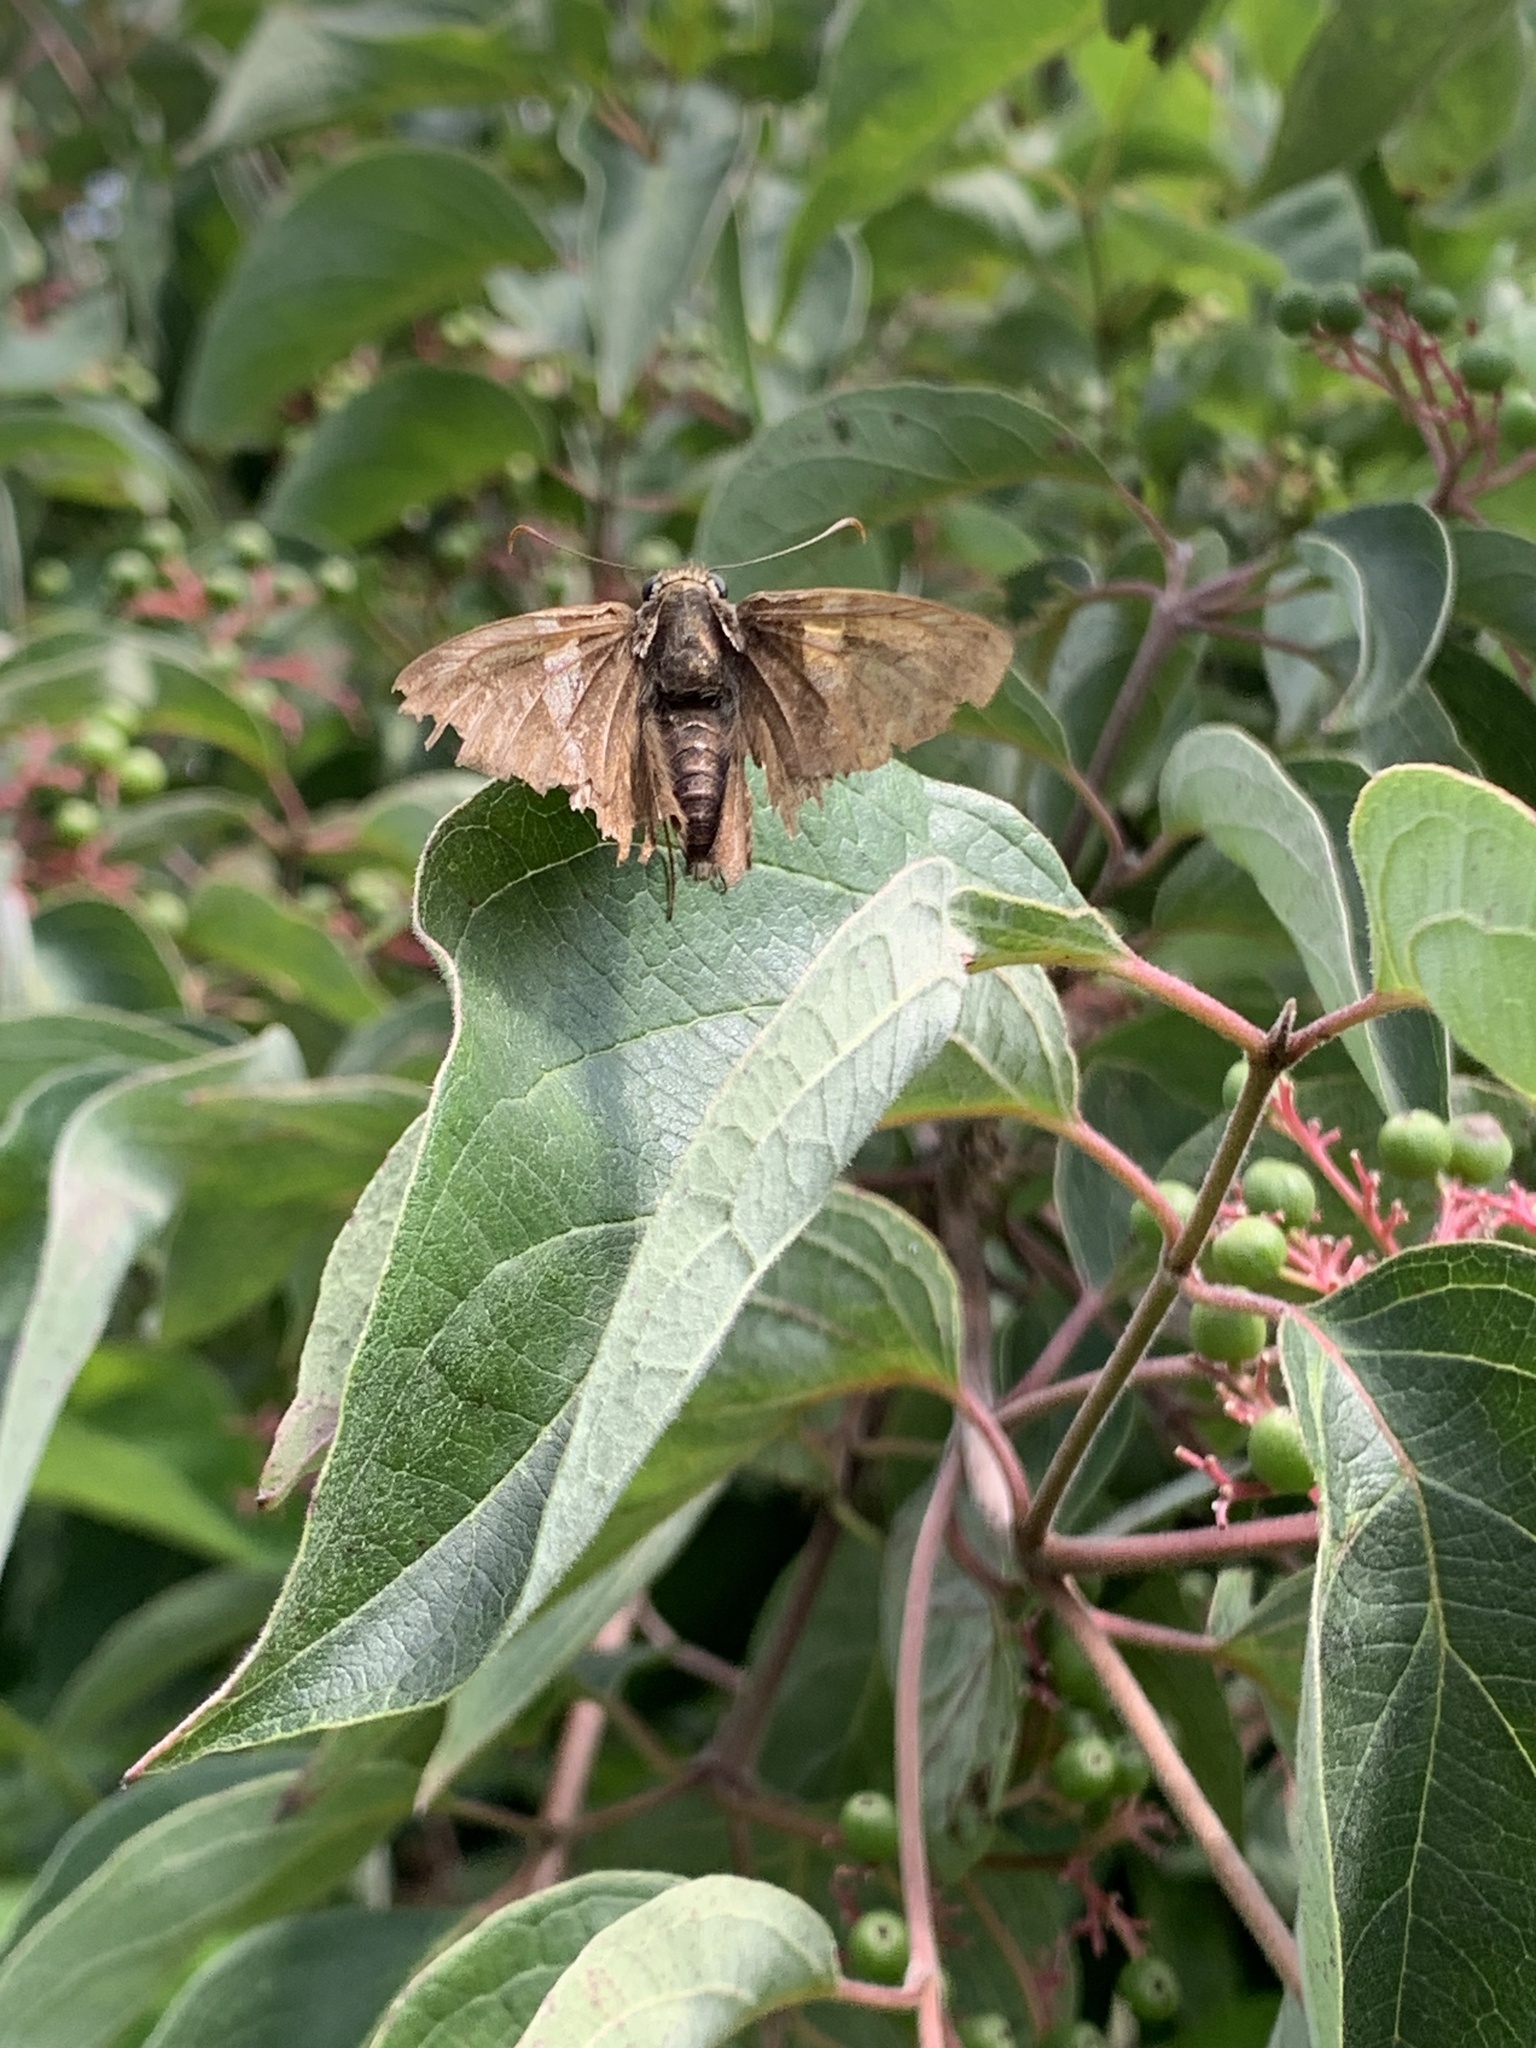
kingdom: Animalia
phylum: Arthropoda
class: Insecta
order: Lepidoptera
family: Hesperiidae
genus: Epargyreus
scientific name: Epargyreus clarus
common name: Silver-spotted skipper
